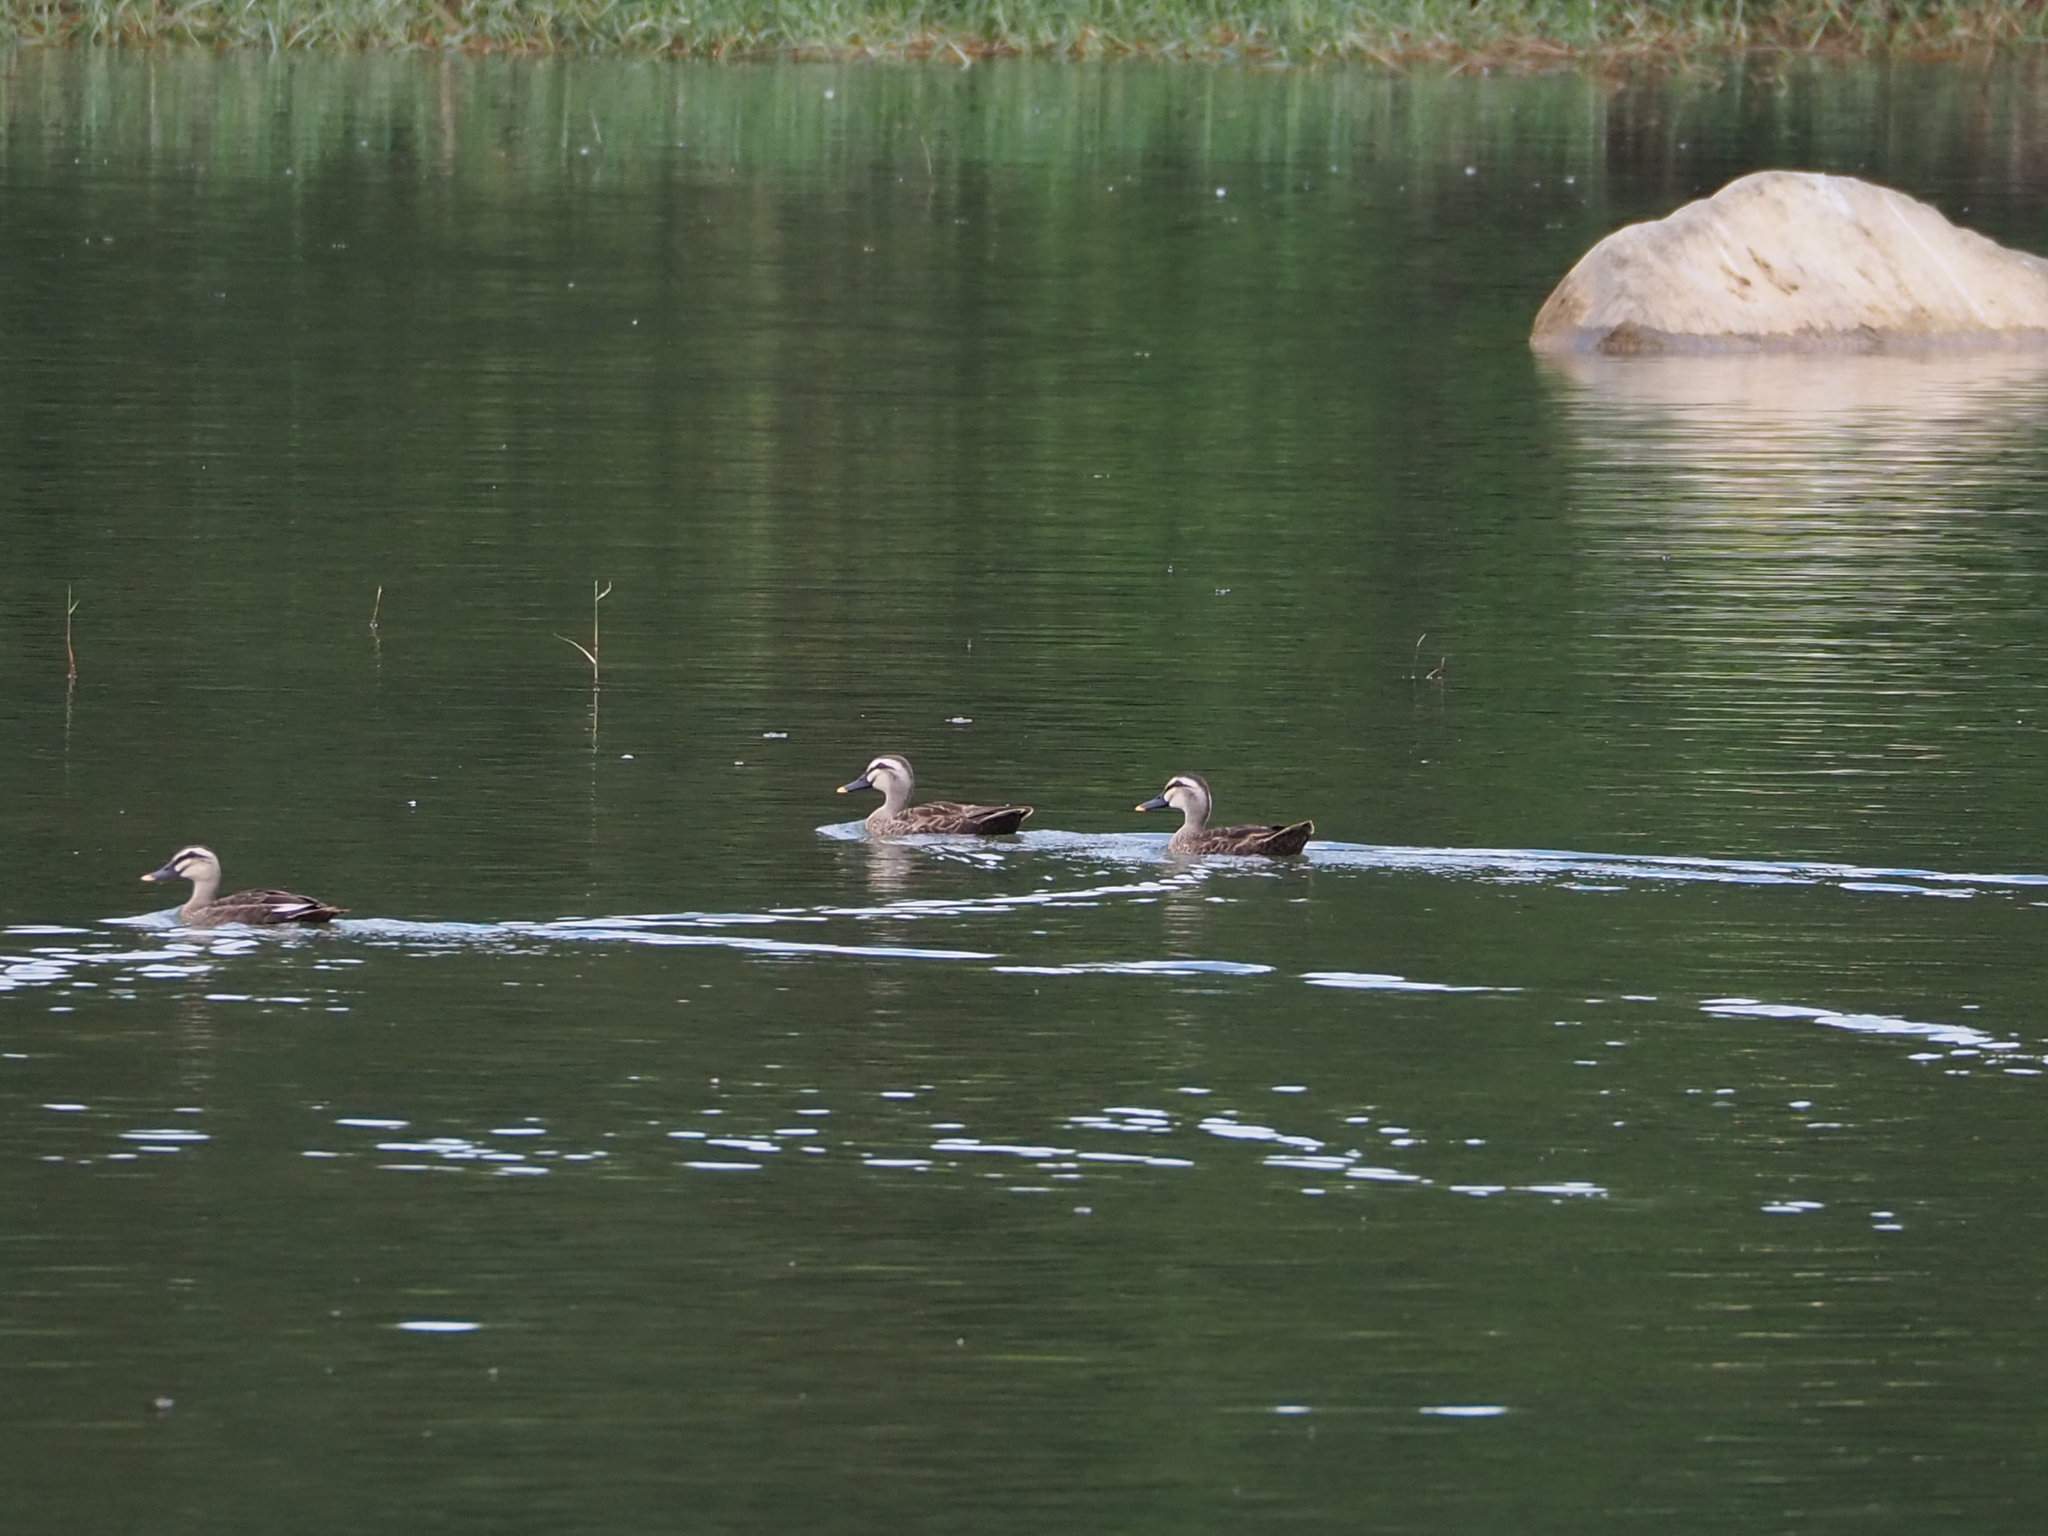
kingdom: Animalia
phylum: Chordata
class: Aves
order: Anseriformes
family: Anatidae
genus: Anas
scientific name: Anas zonorhyncha
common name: Eastern spot-billed duck
